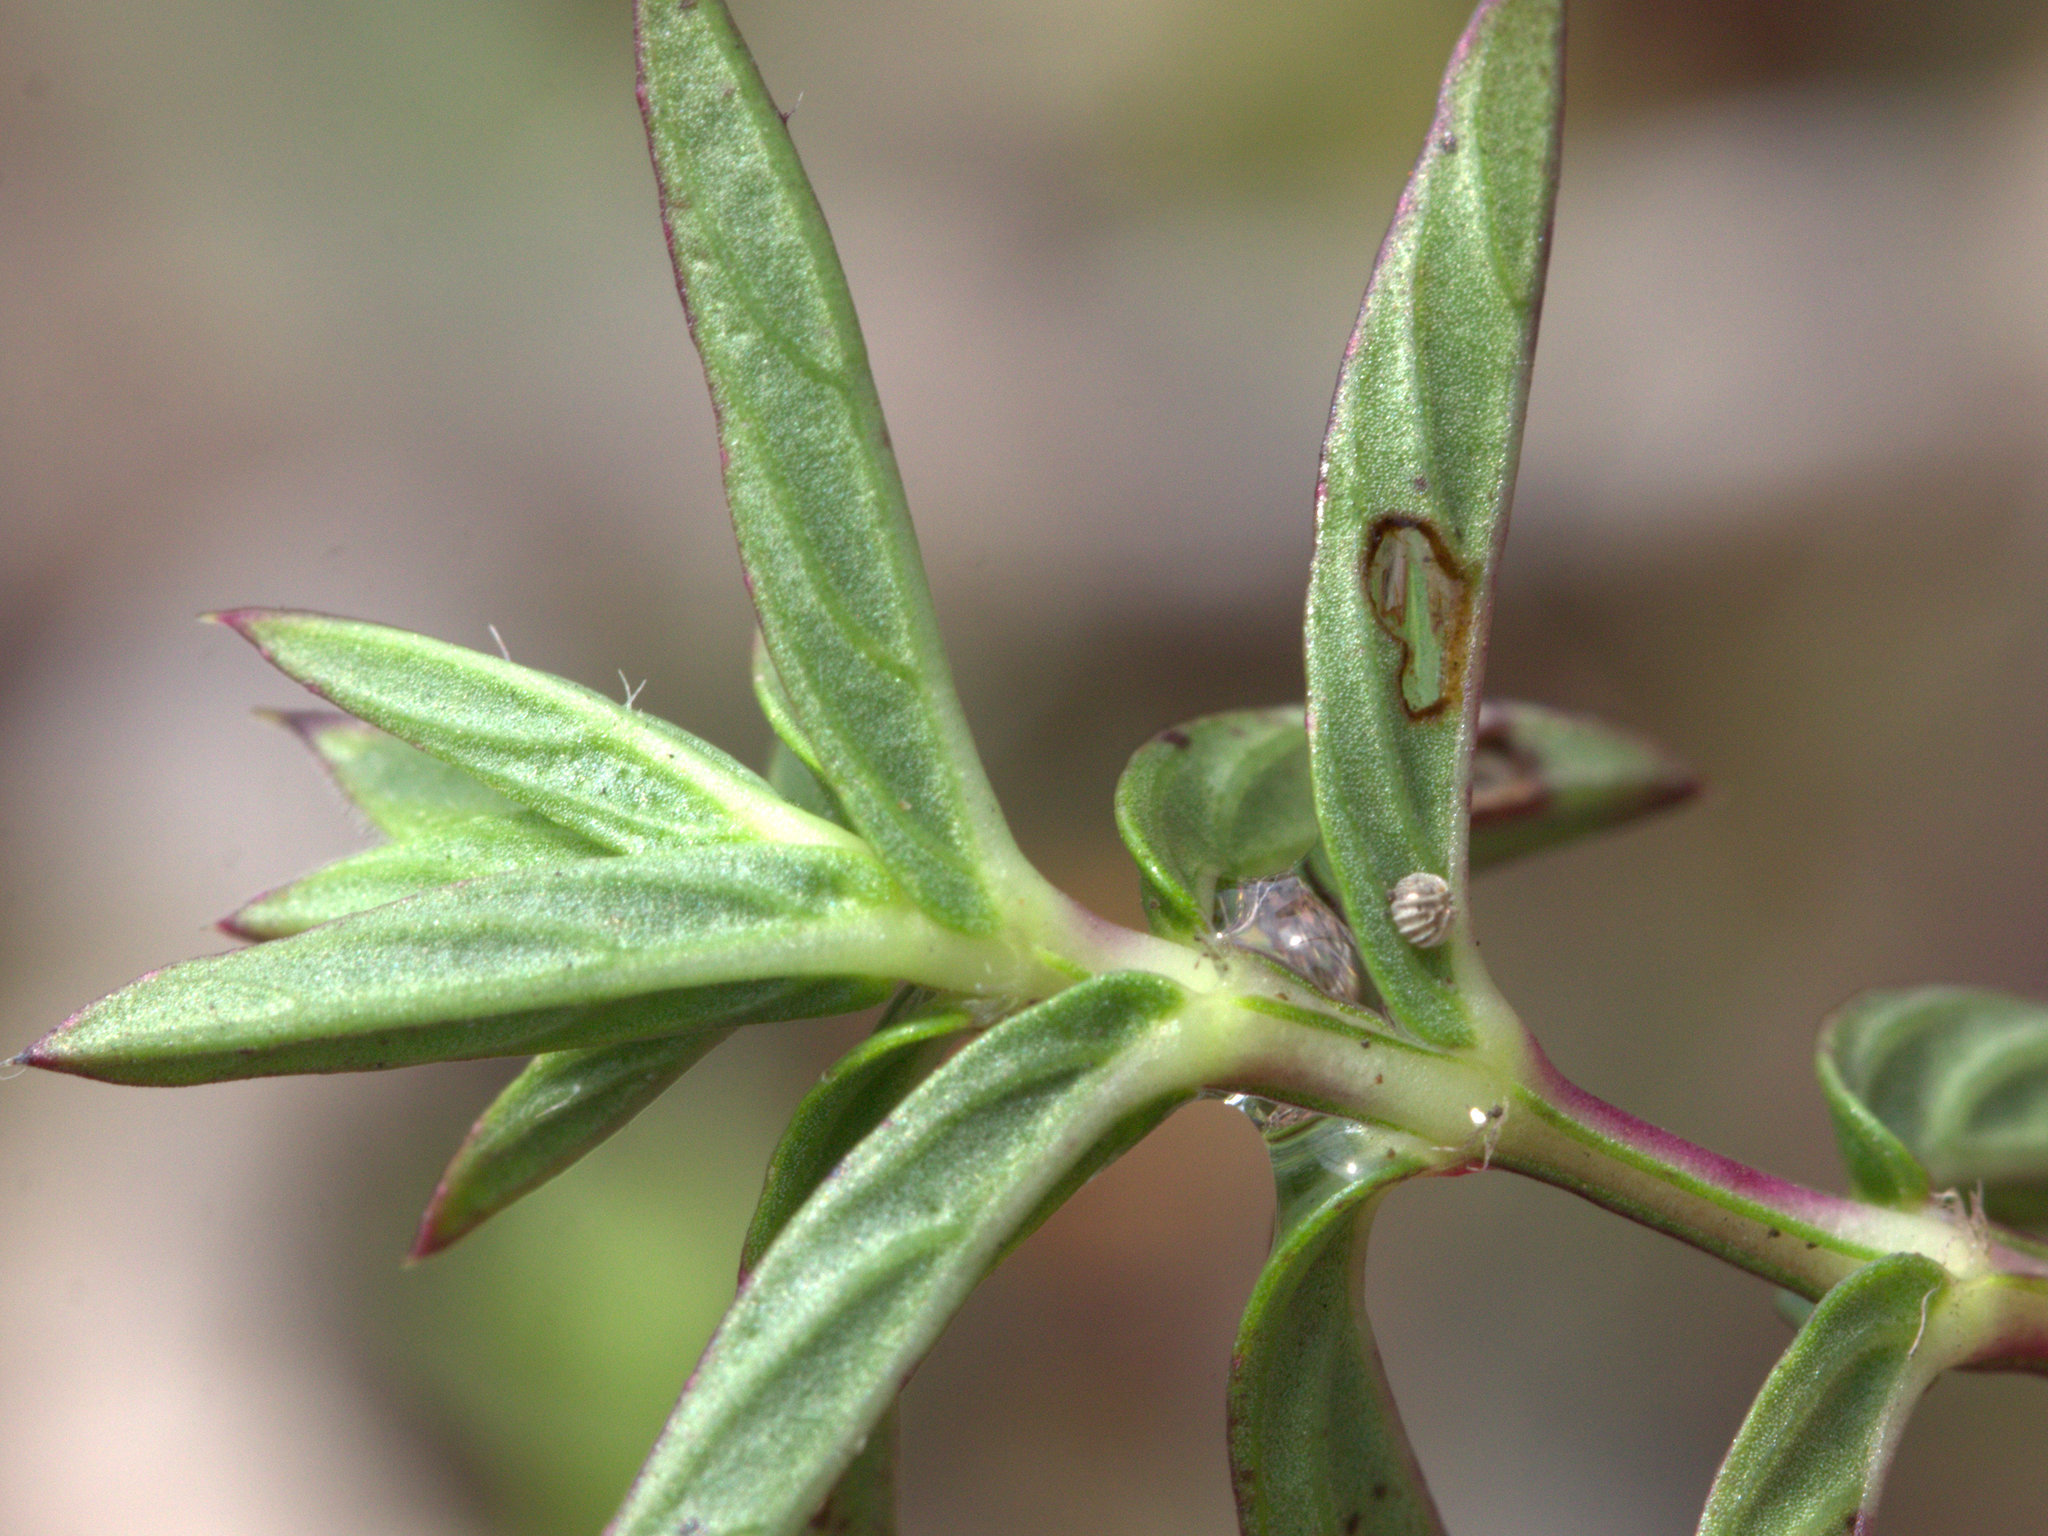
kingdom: Plantae
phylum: Tracheophyta
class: Magnoliopsida
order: Lamiales
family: Acanthaceae
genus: Lepidagathis
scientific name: Lepidagathis keralensis
